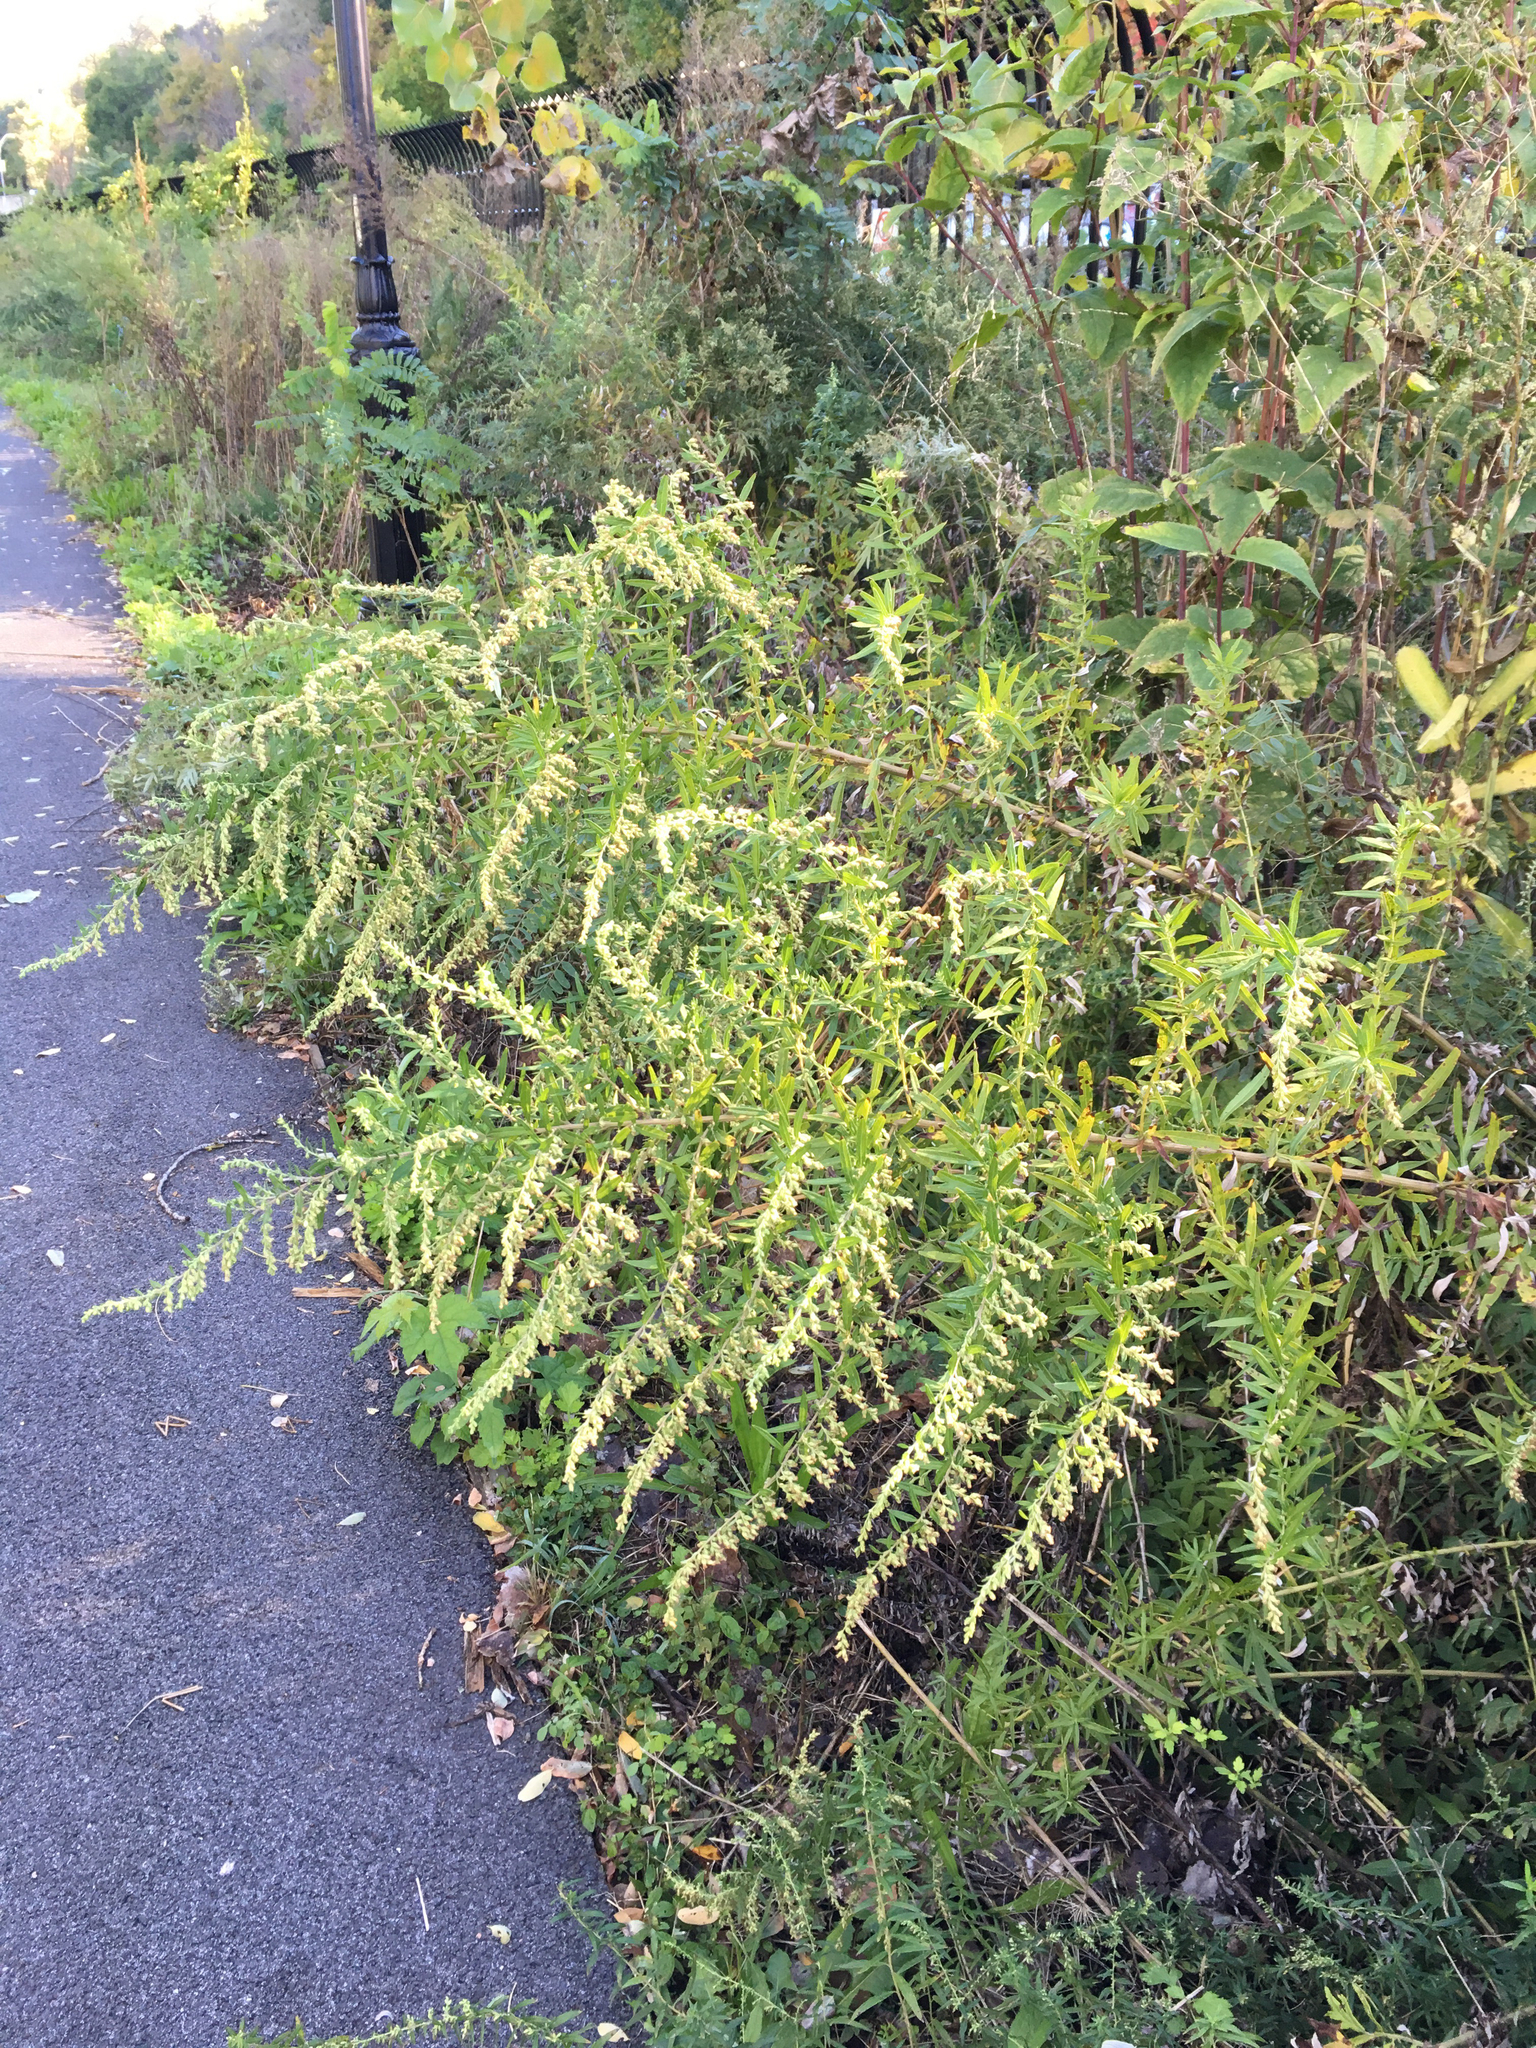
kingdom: Plantae
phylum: Tracheophyta
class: Magnoliopsida
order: Asterales
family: Asteraceae
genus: Artemisia
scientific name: Artemisia vulgaris
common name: Mugwort
